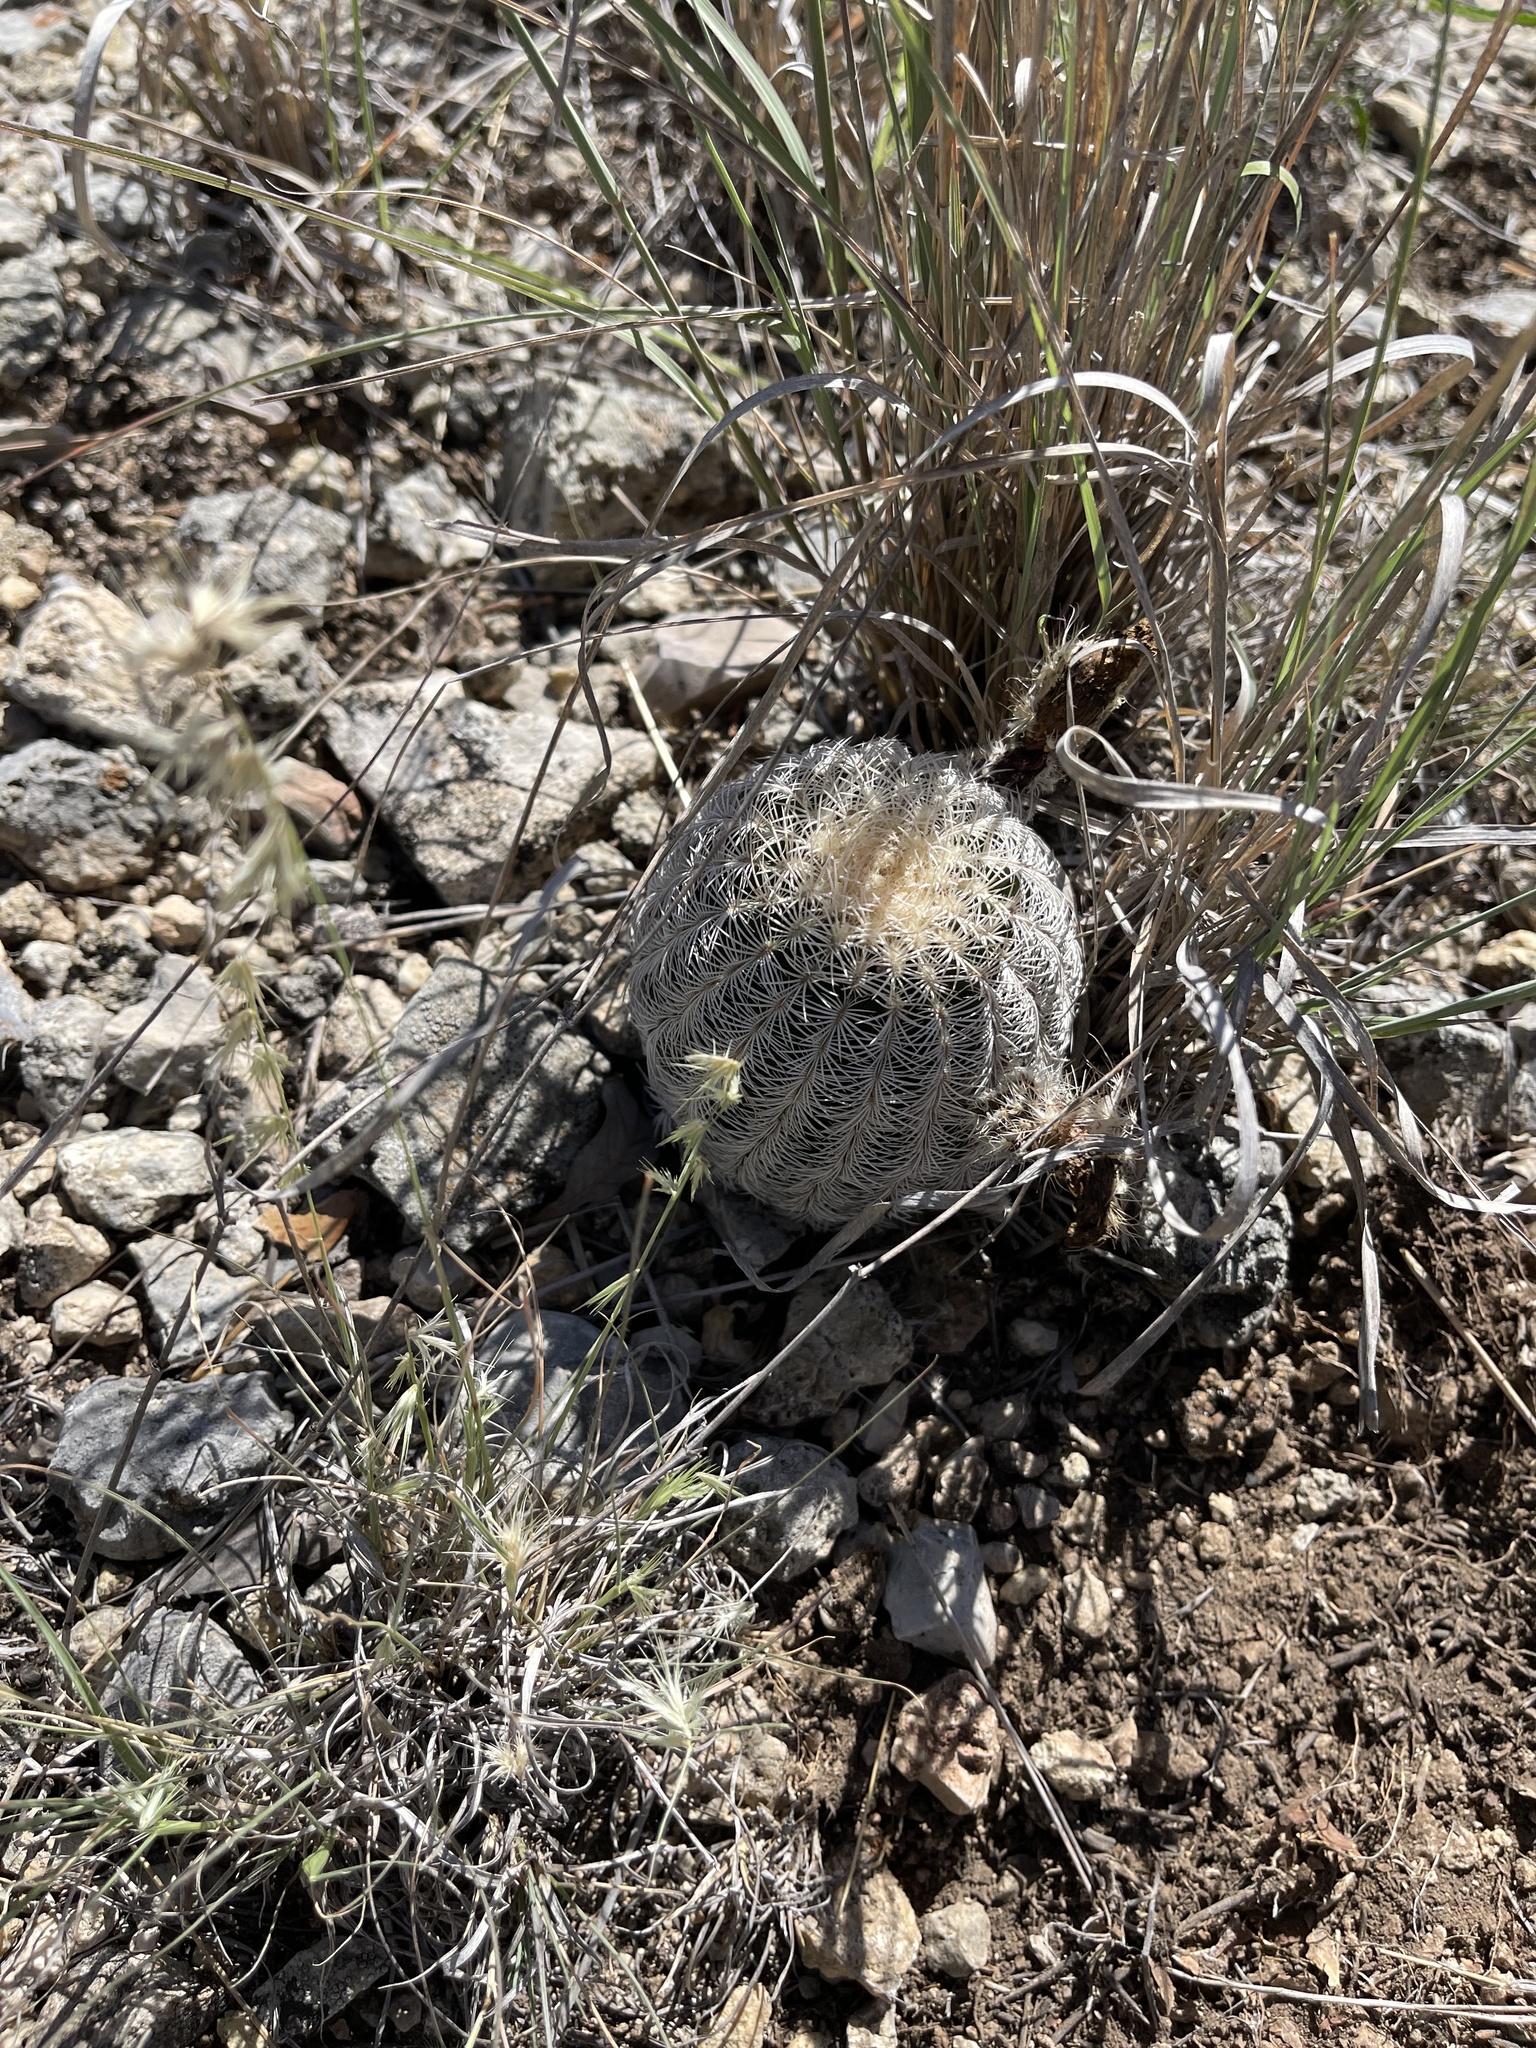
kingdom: Plantae
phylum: Tracheophyta
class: Magnoliopsida
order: Caryophyllales
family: Cactaceae
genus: Echinocereus
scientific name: Echinocereus reichenbachii
